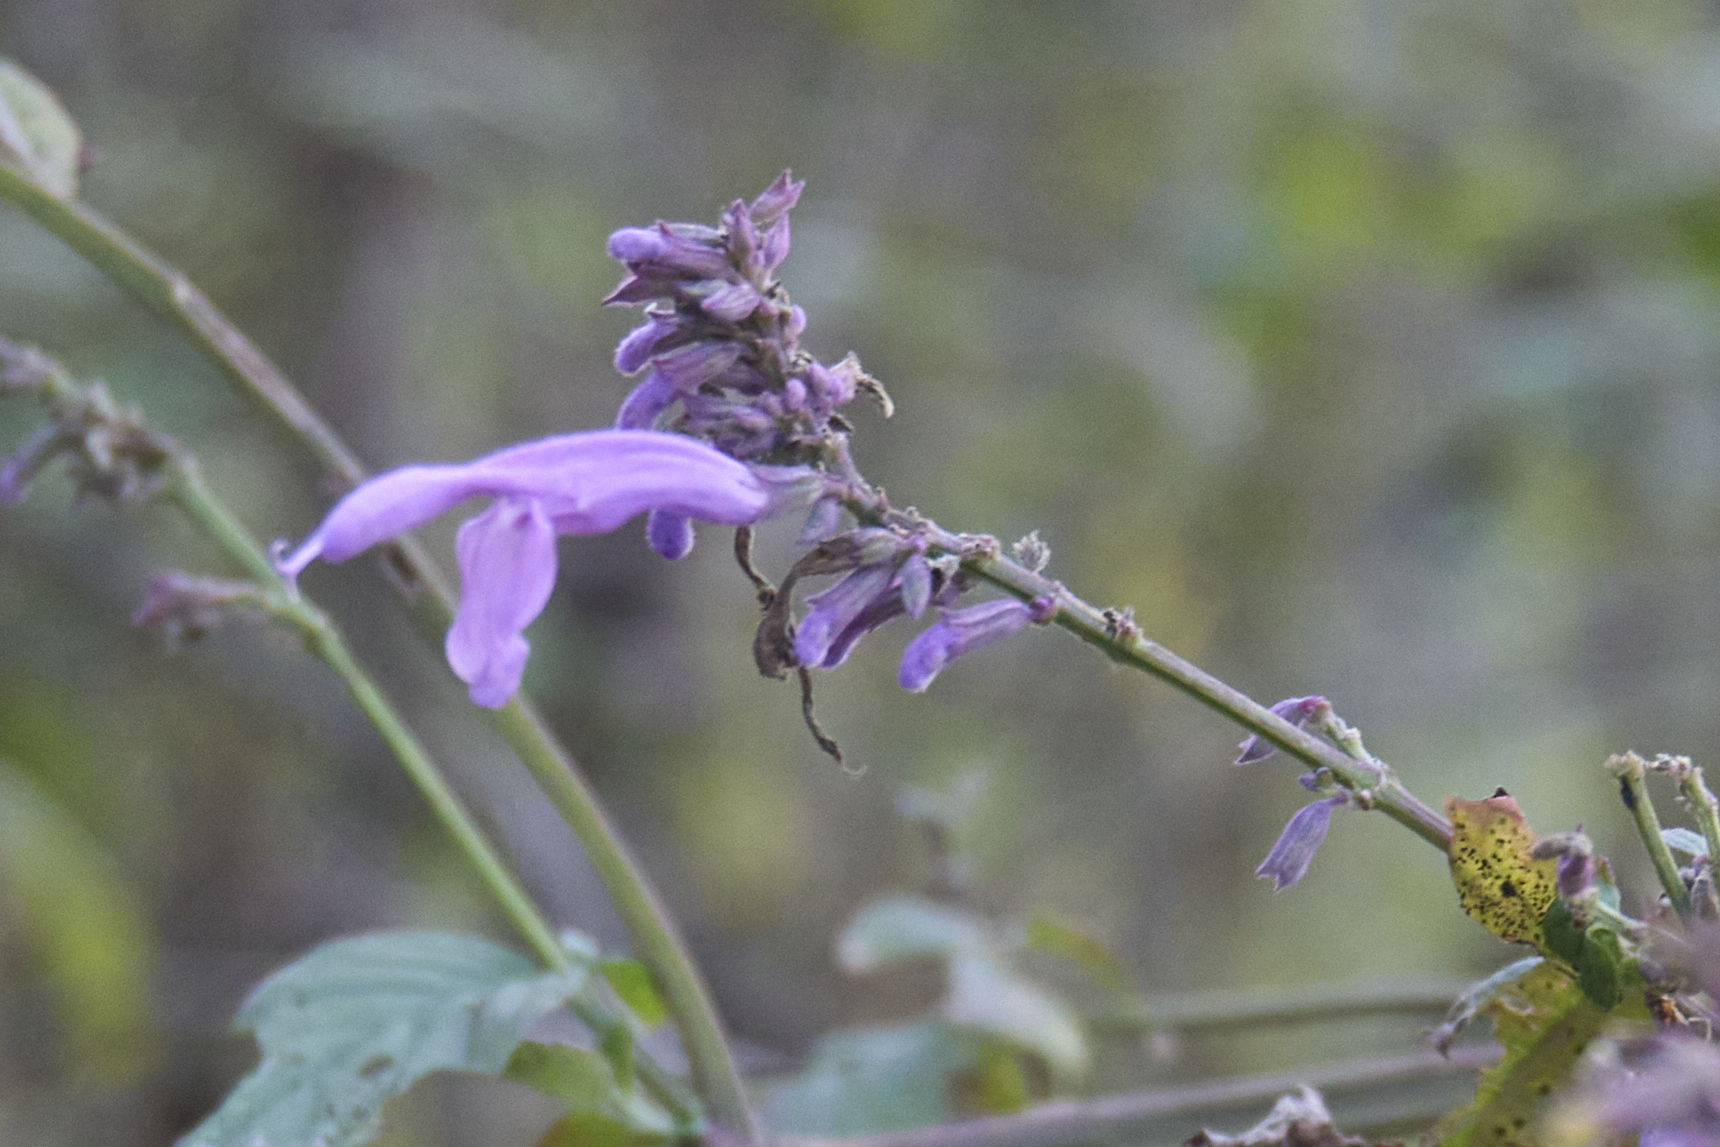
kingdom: Plantae
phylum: Tracheophyta
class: Magnoliopsida
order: Lamiales
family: Lamiaceae
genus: Salvia
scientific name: Salvia purpurea
